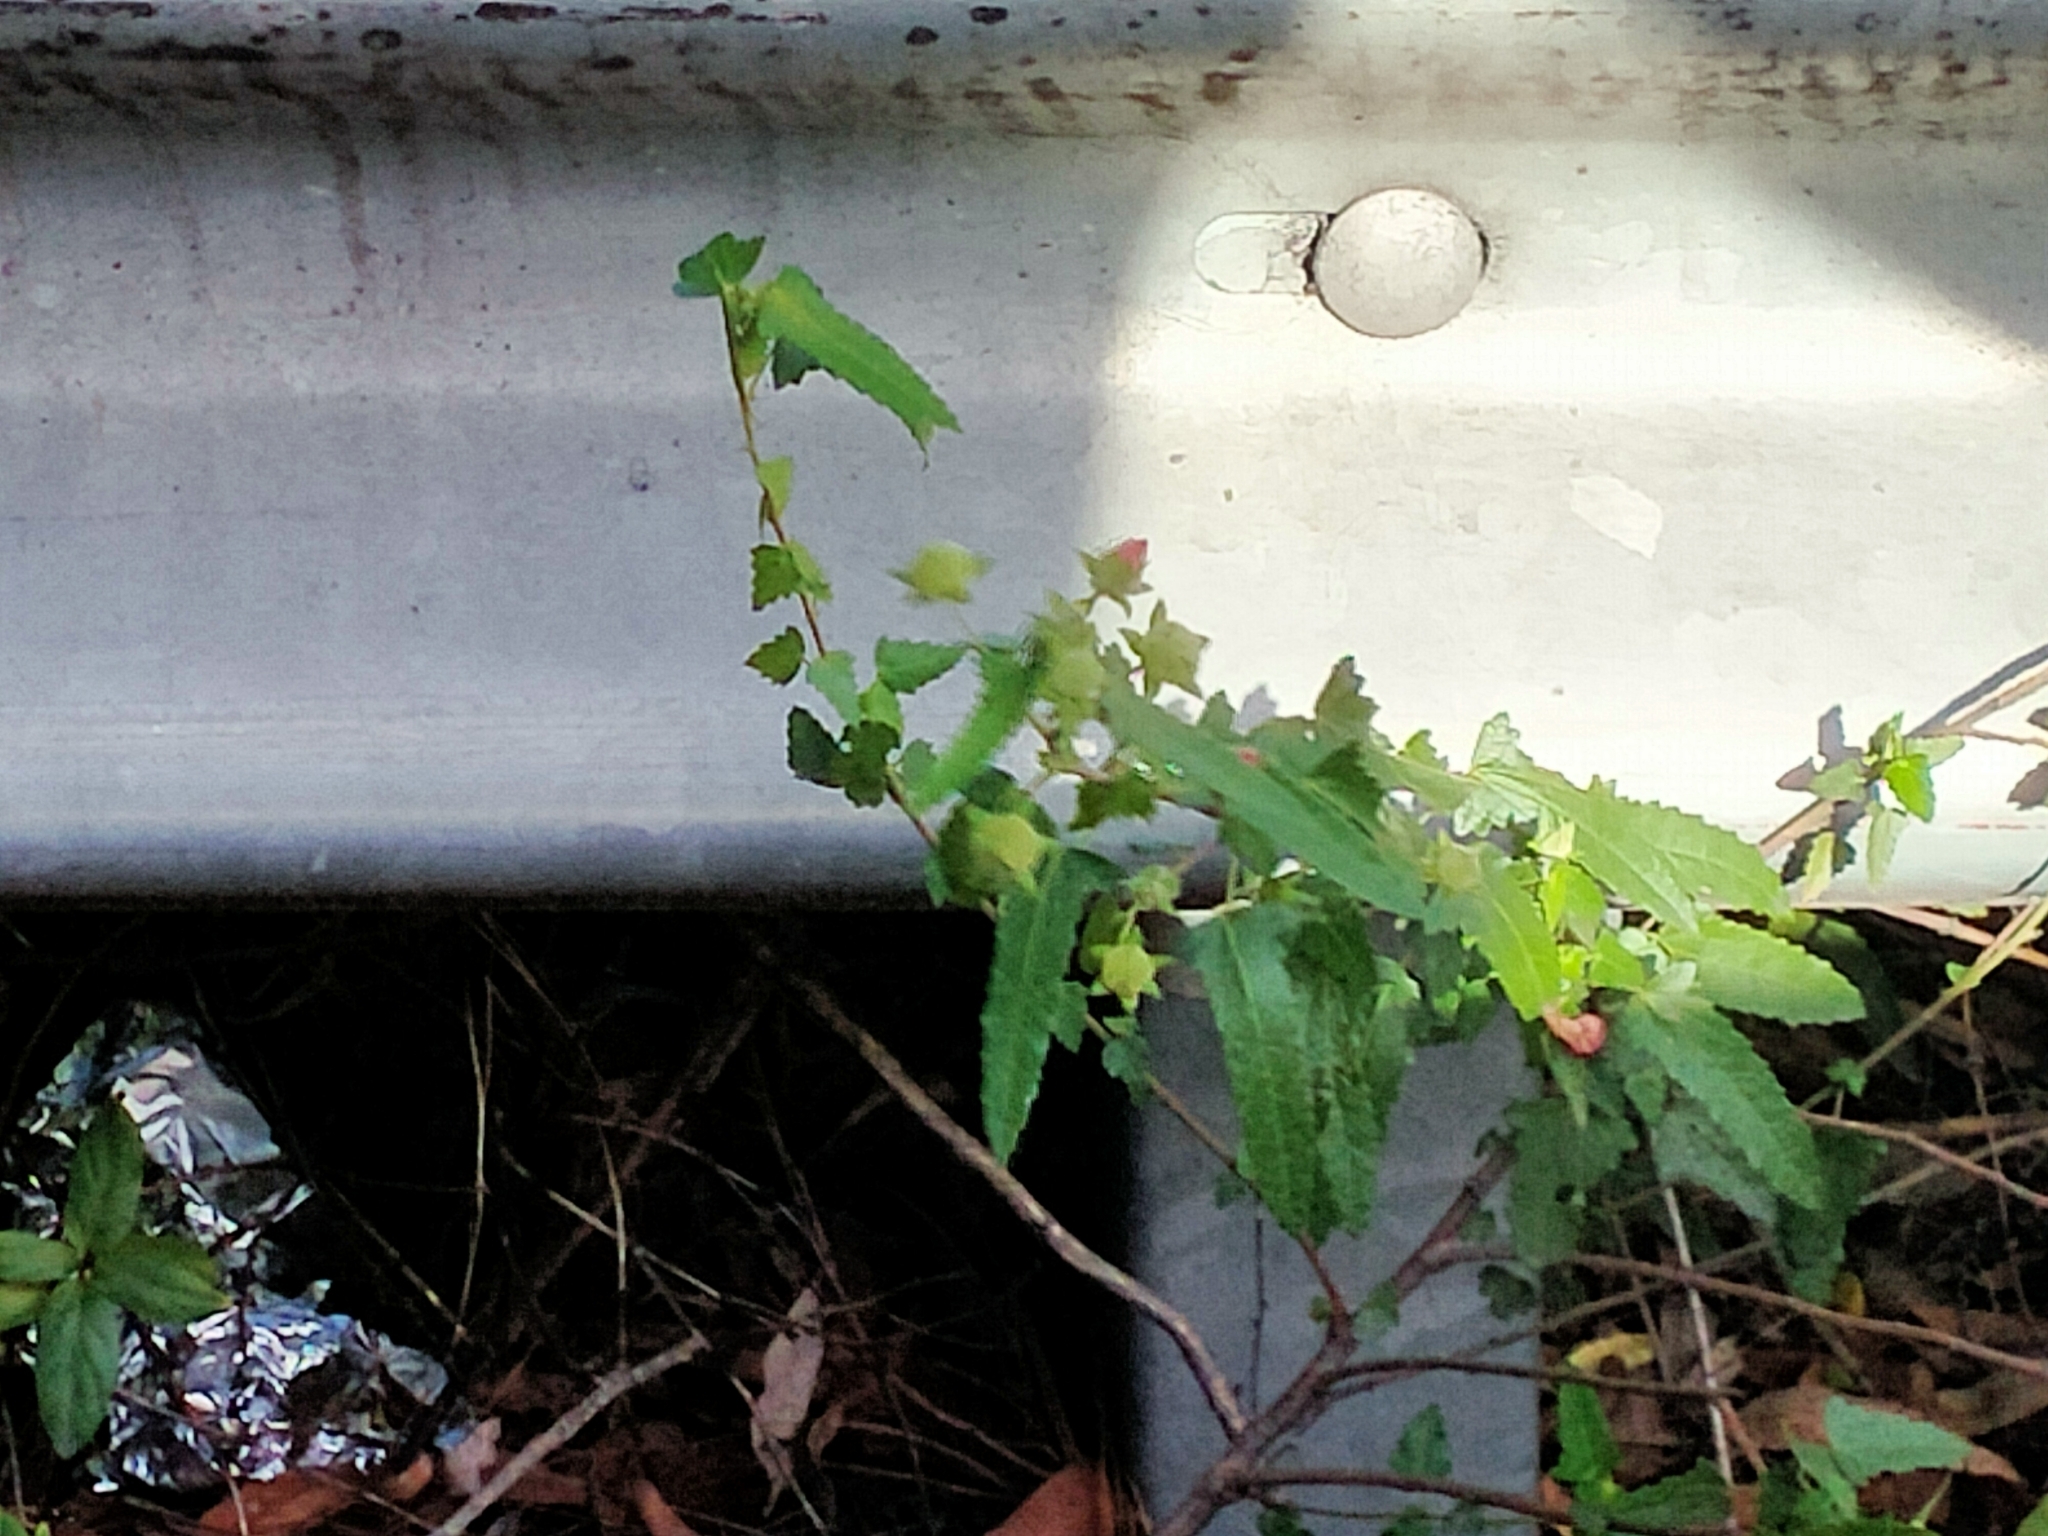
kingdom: Plantae
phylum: Tracheophyta
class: Magnoliopsida
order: Malvales
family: Malvaceae
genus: Pavonia
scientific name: Pavonia hastata
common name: Spearleaf swampmallow
